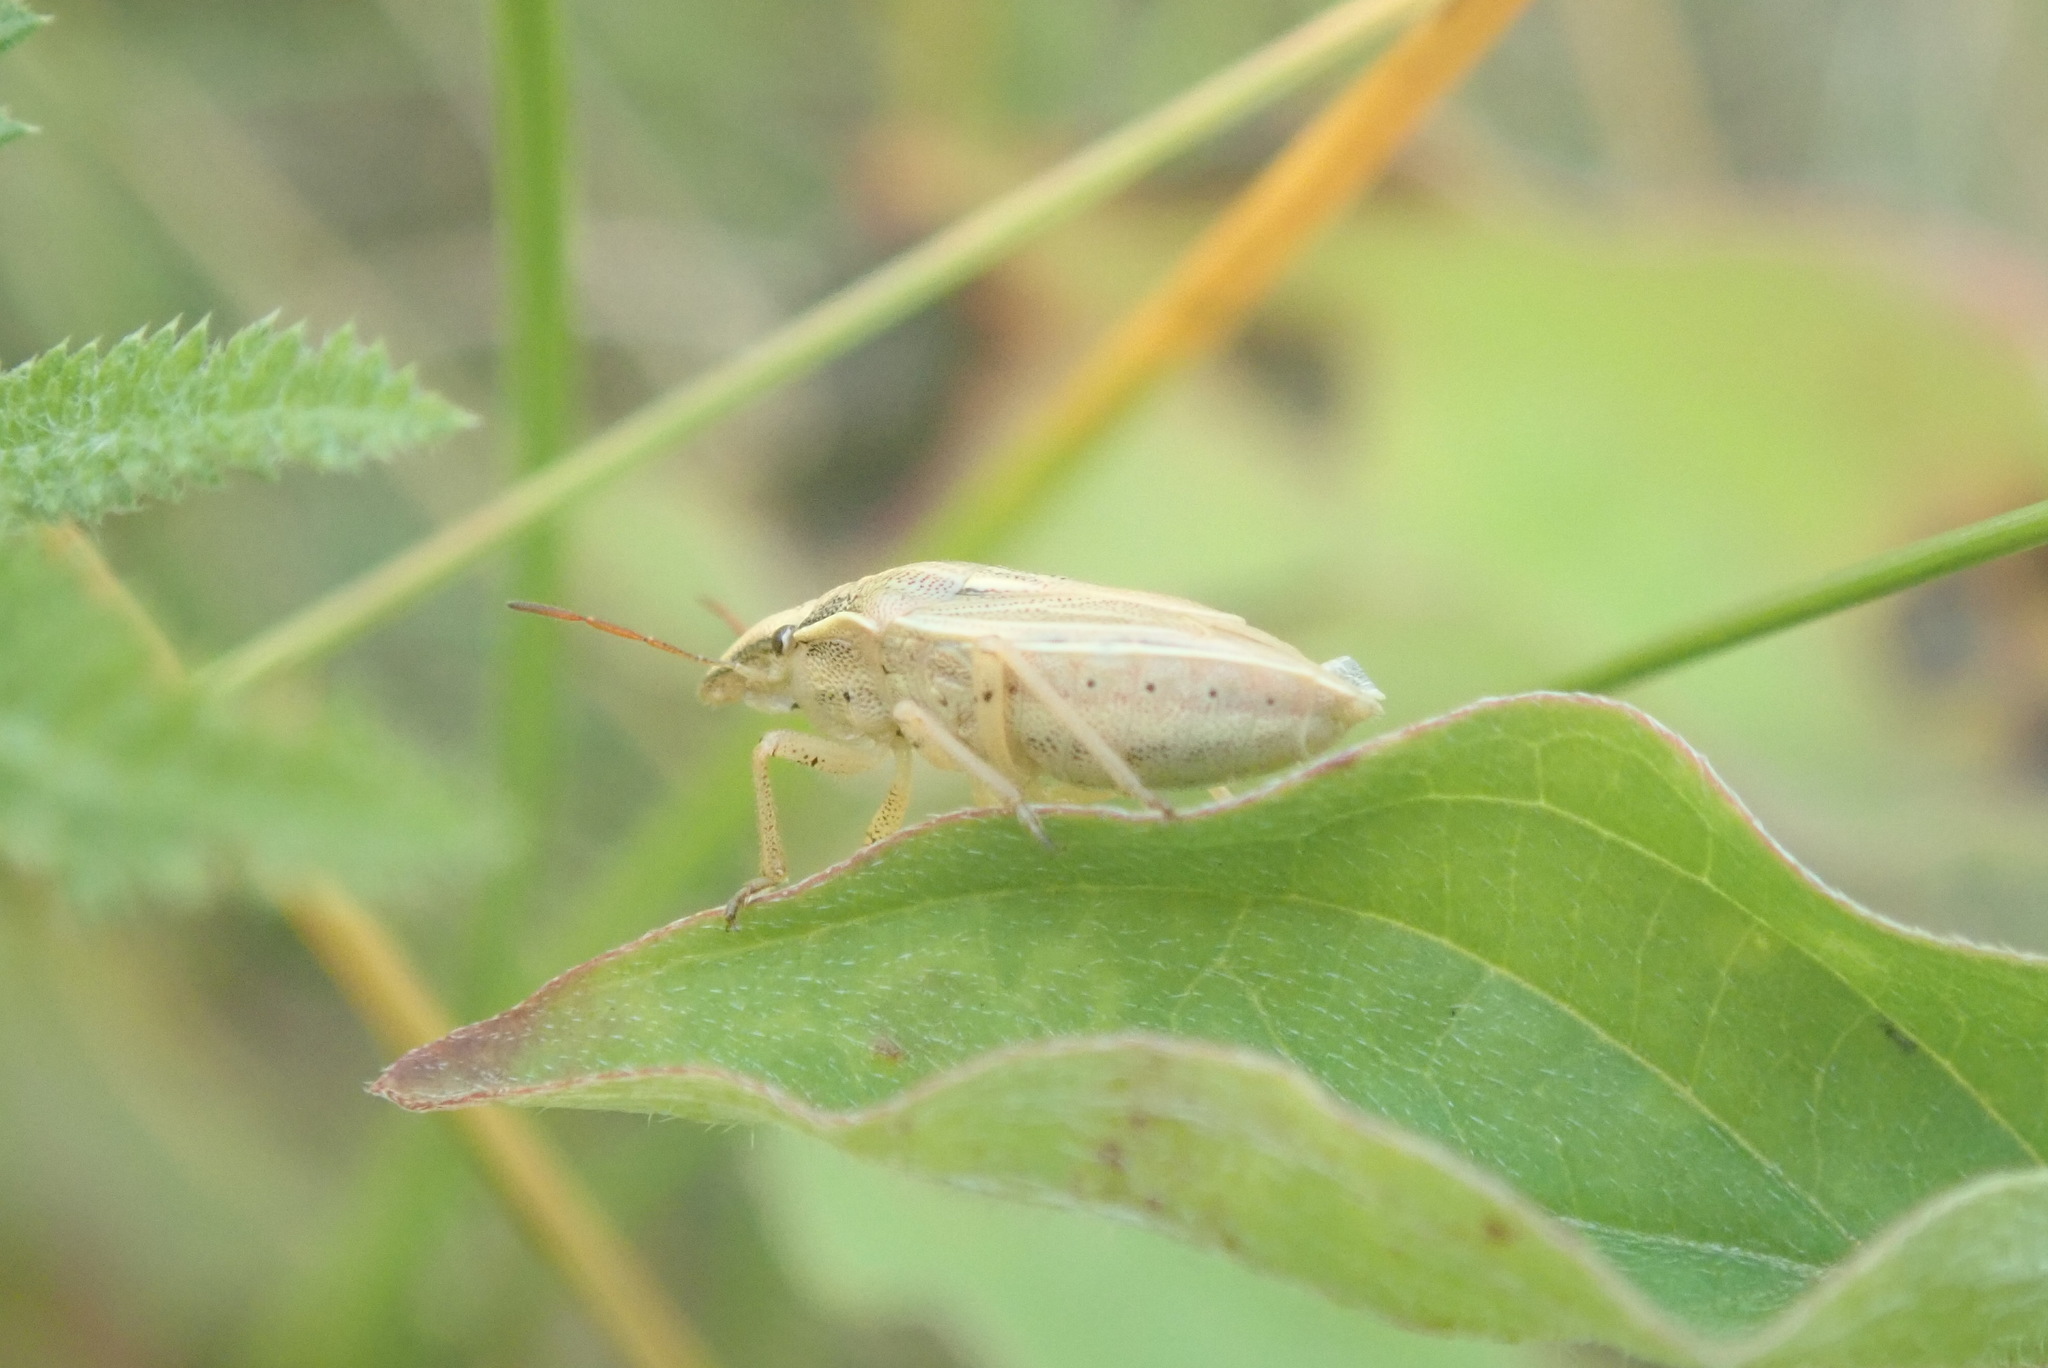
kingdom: Animalia
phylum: Arthropoda
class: Insecta
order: Hemiptera
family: Pentatomidae
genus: Aelia
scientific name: Aelia acuminata
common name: Bishop's mitre
